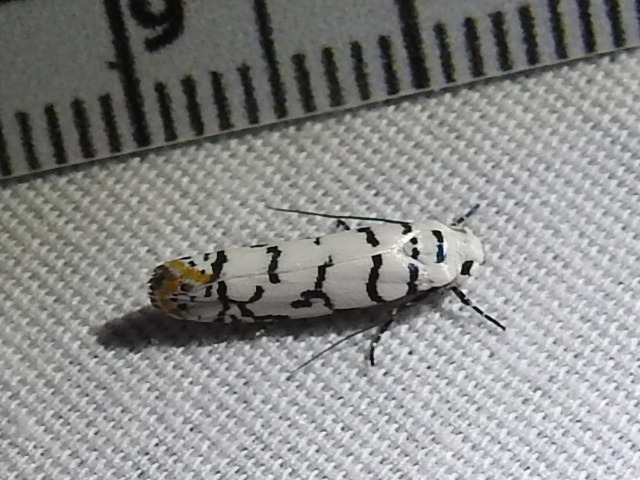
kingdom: Animalia
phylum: Arthropoda
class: Insecta
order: Lepidoptera
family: Ethmiidae
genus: Ethmia
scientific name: Ethmia delliella
